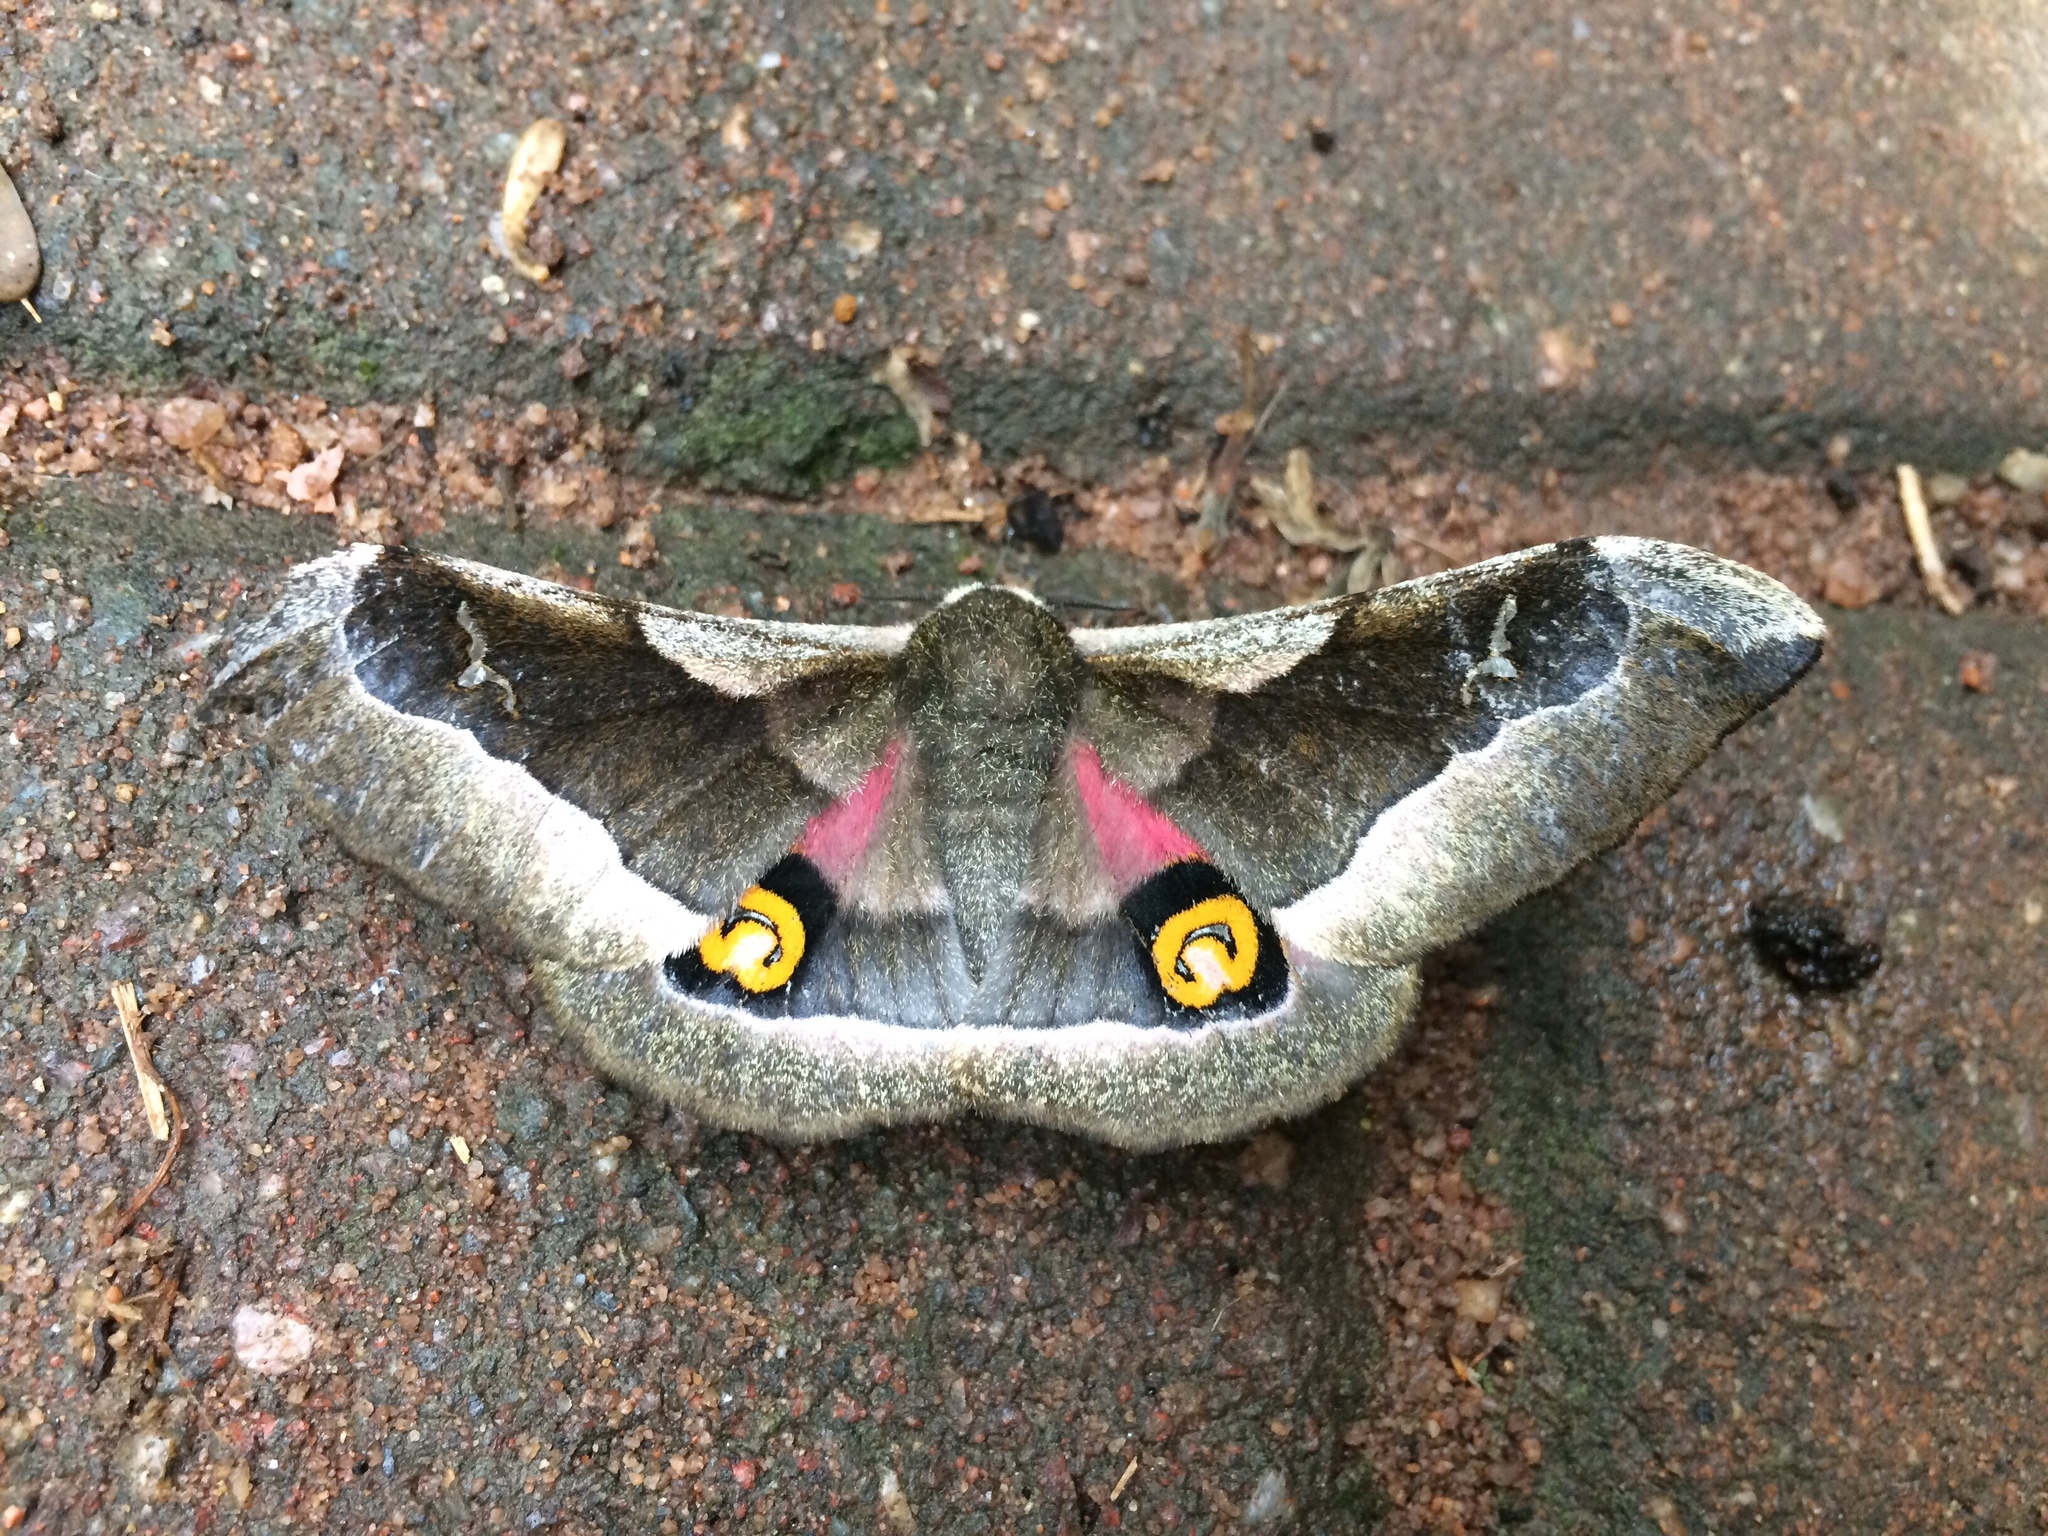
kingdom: Animalia
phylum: Arthropoda
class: Insecta
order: Lepidoptera
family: Saturniidae
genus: Ludia
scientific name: Ludia delegorguei
